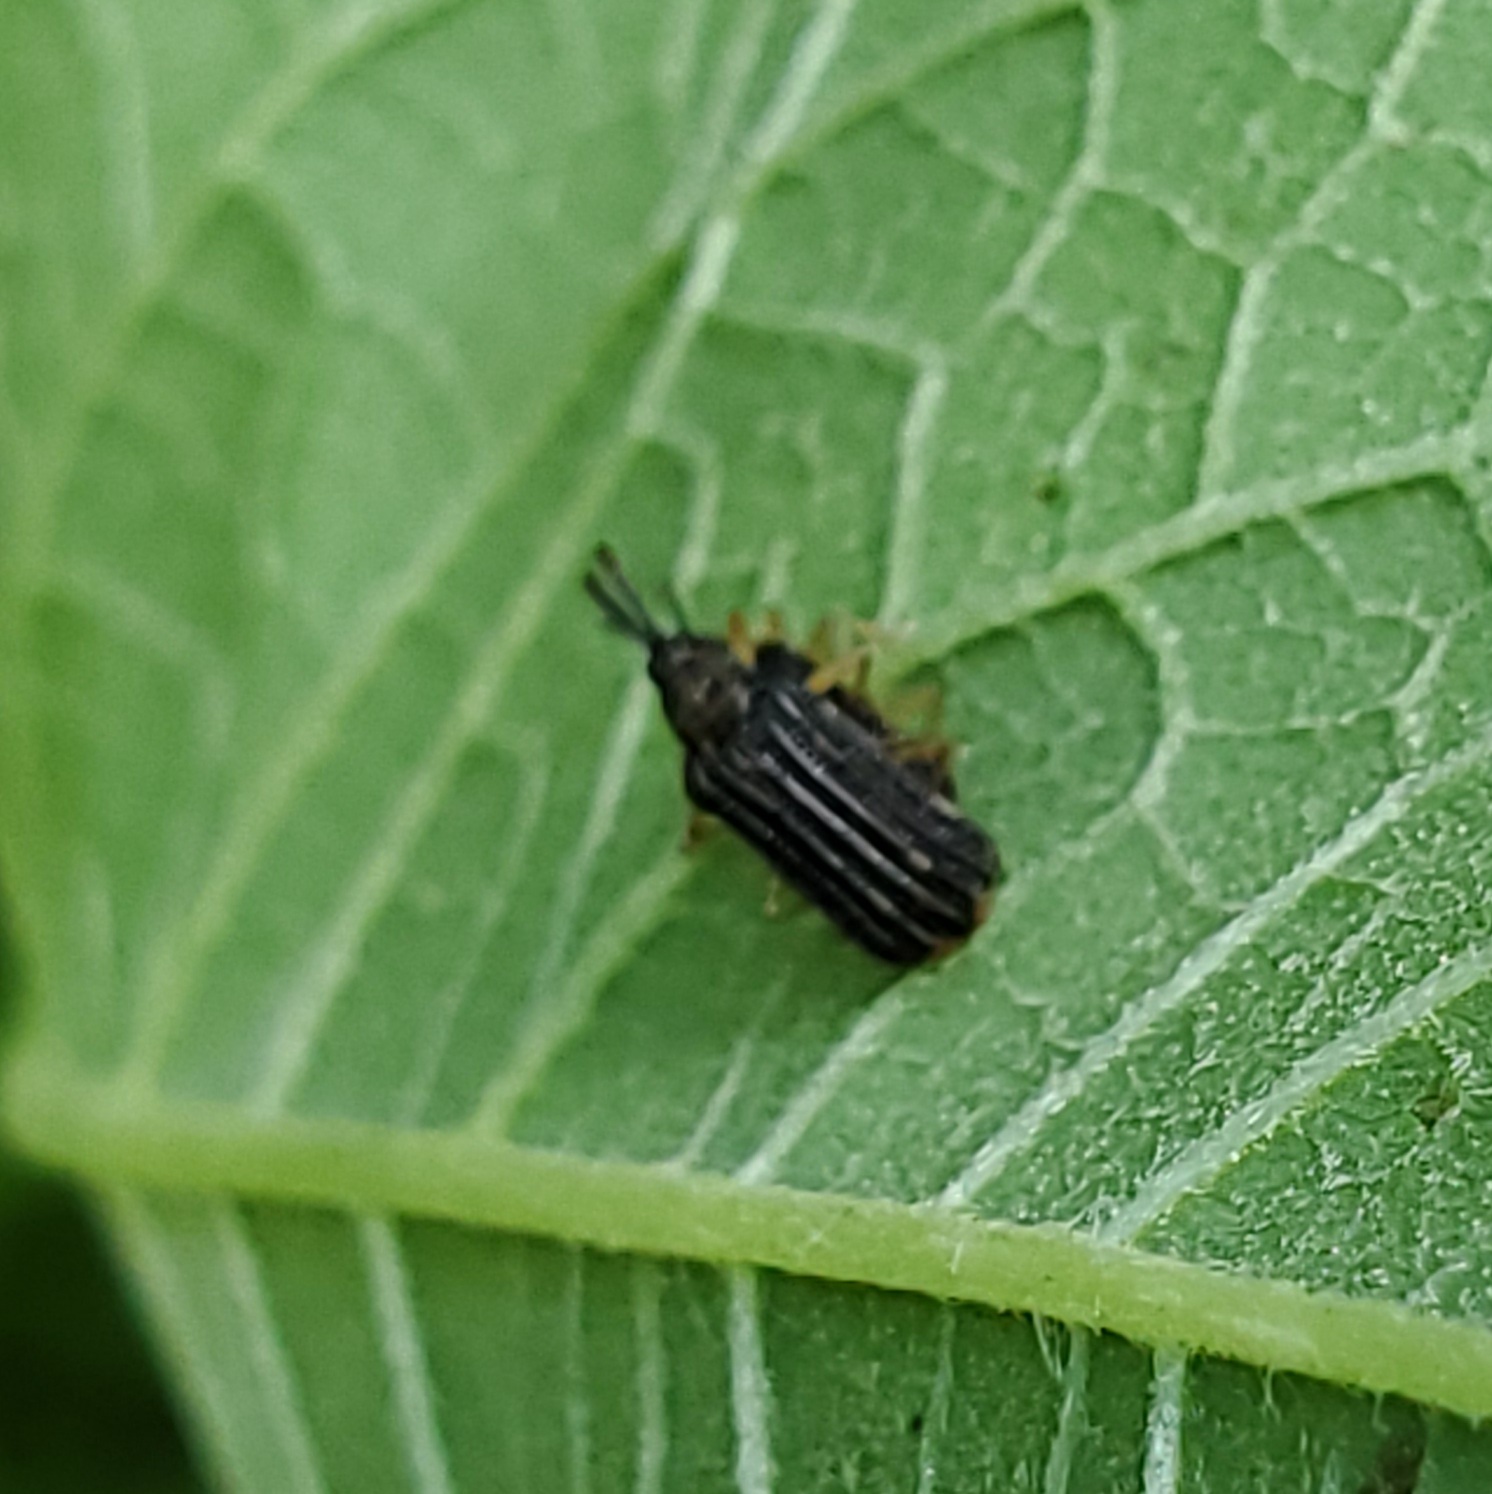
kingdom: Animalia
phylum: Arthropoda
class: Insecta
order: Coleoptera
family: Chrysomelidae
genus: Sumitrosis
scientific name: Sumitrosis inaequalis
